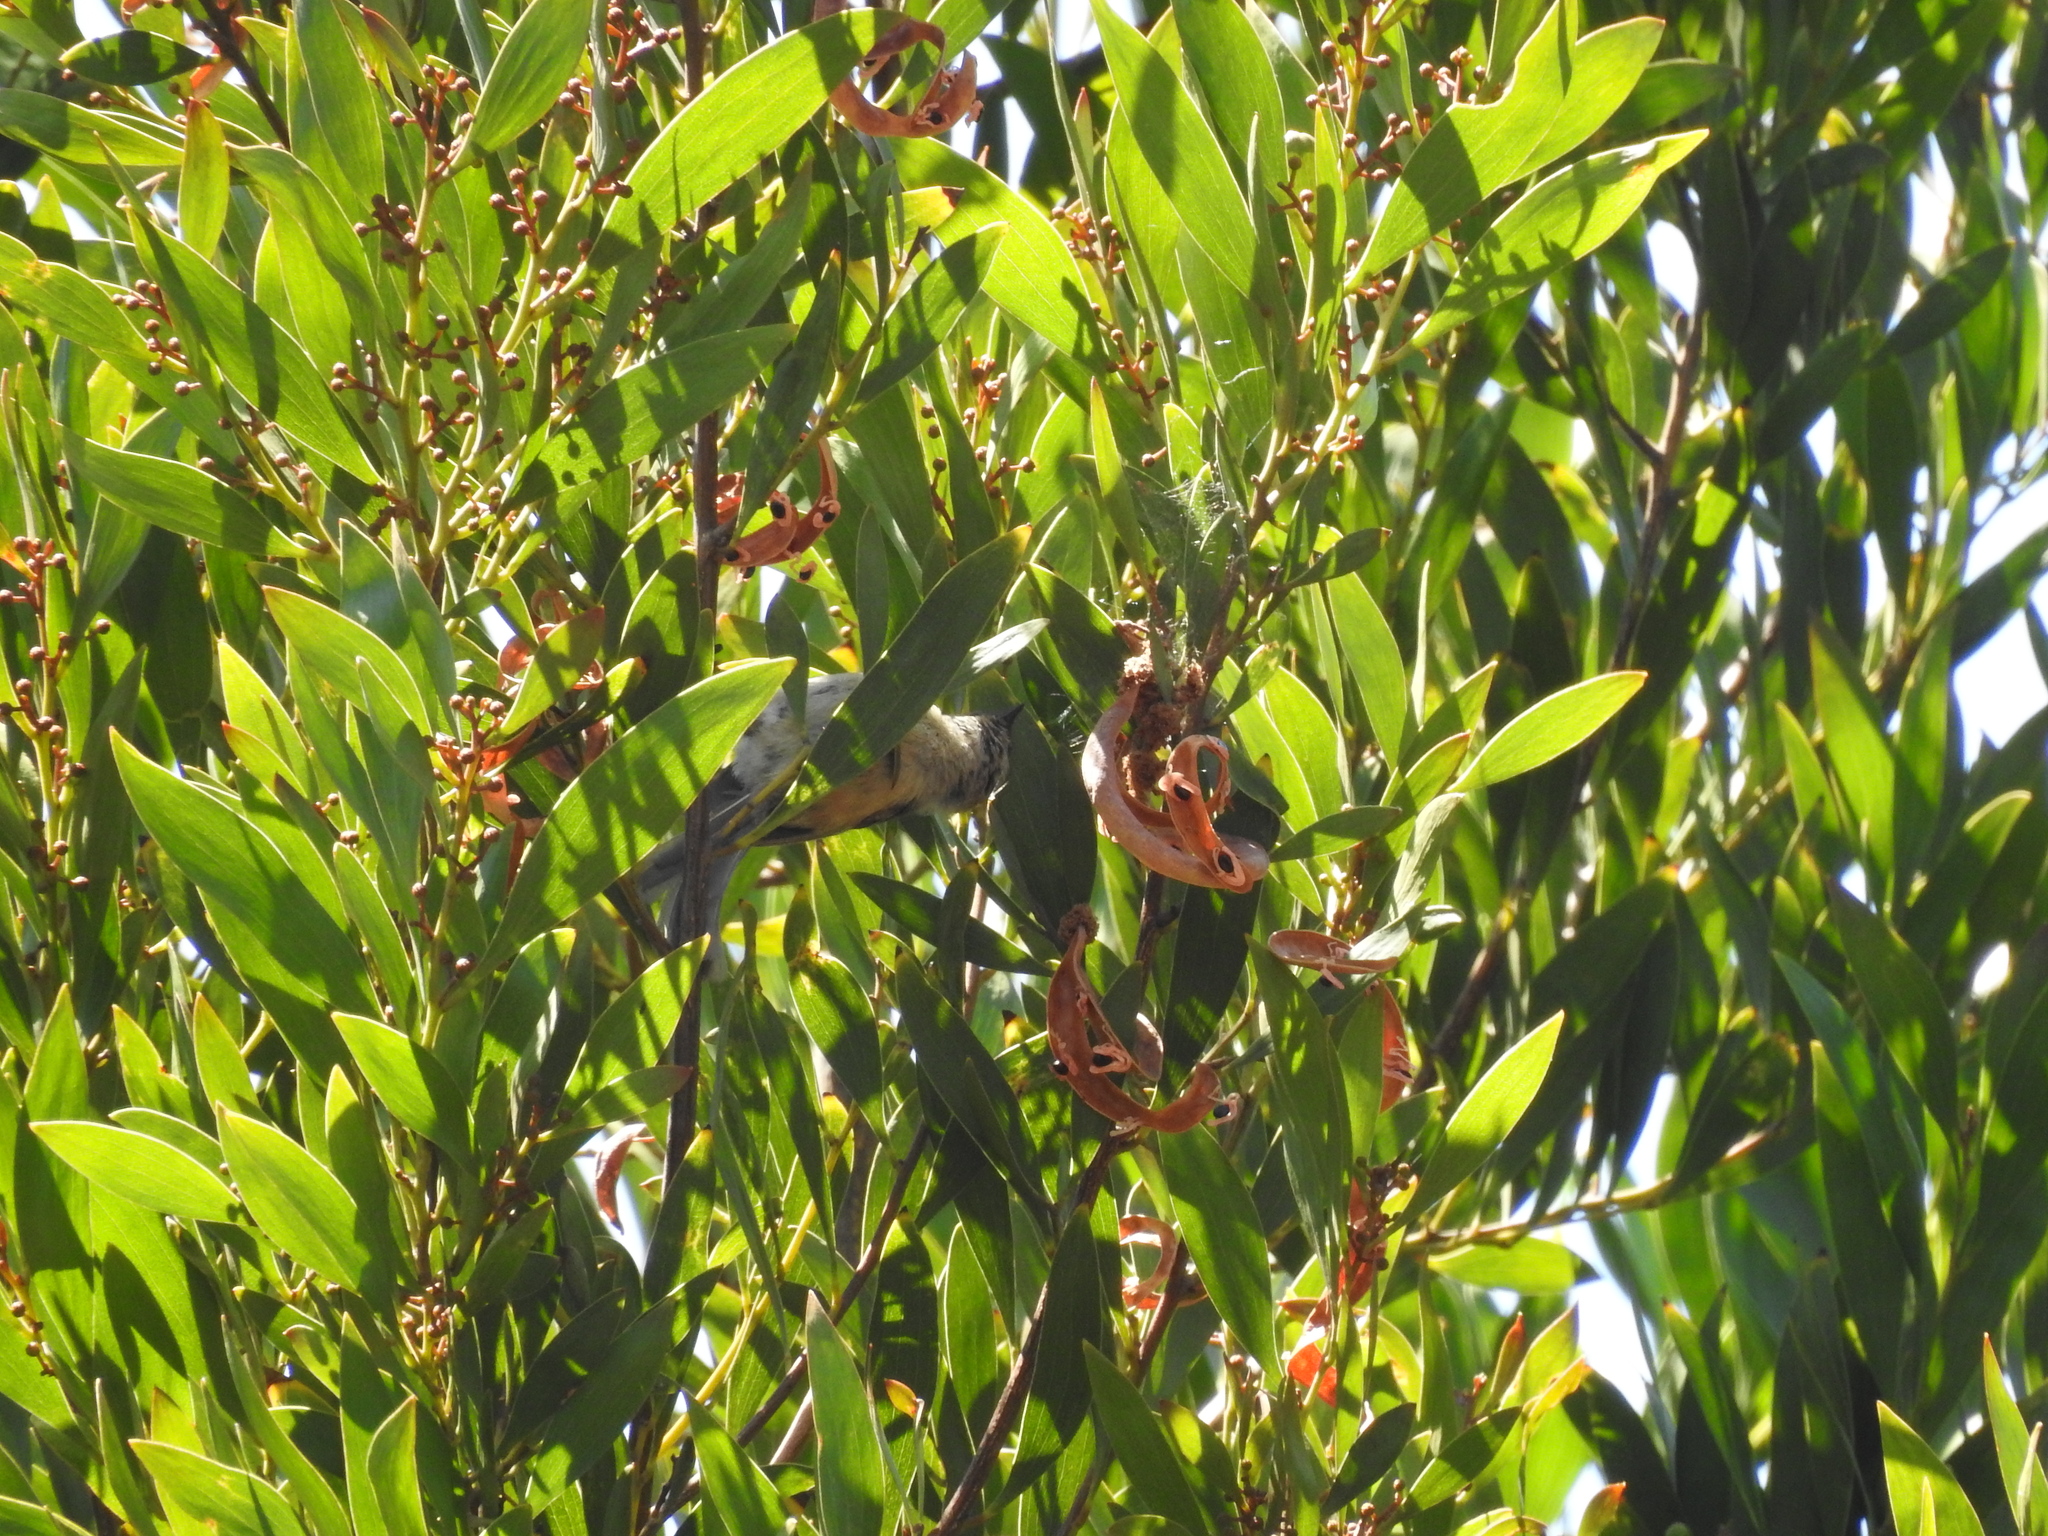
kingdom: Animalia
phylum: Chordata
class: Aves
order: Passeriformes
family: Aegithalidae
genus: Psaltriparus
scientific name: Psaltriparus minimus
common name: American bushtit
